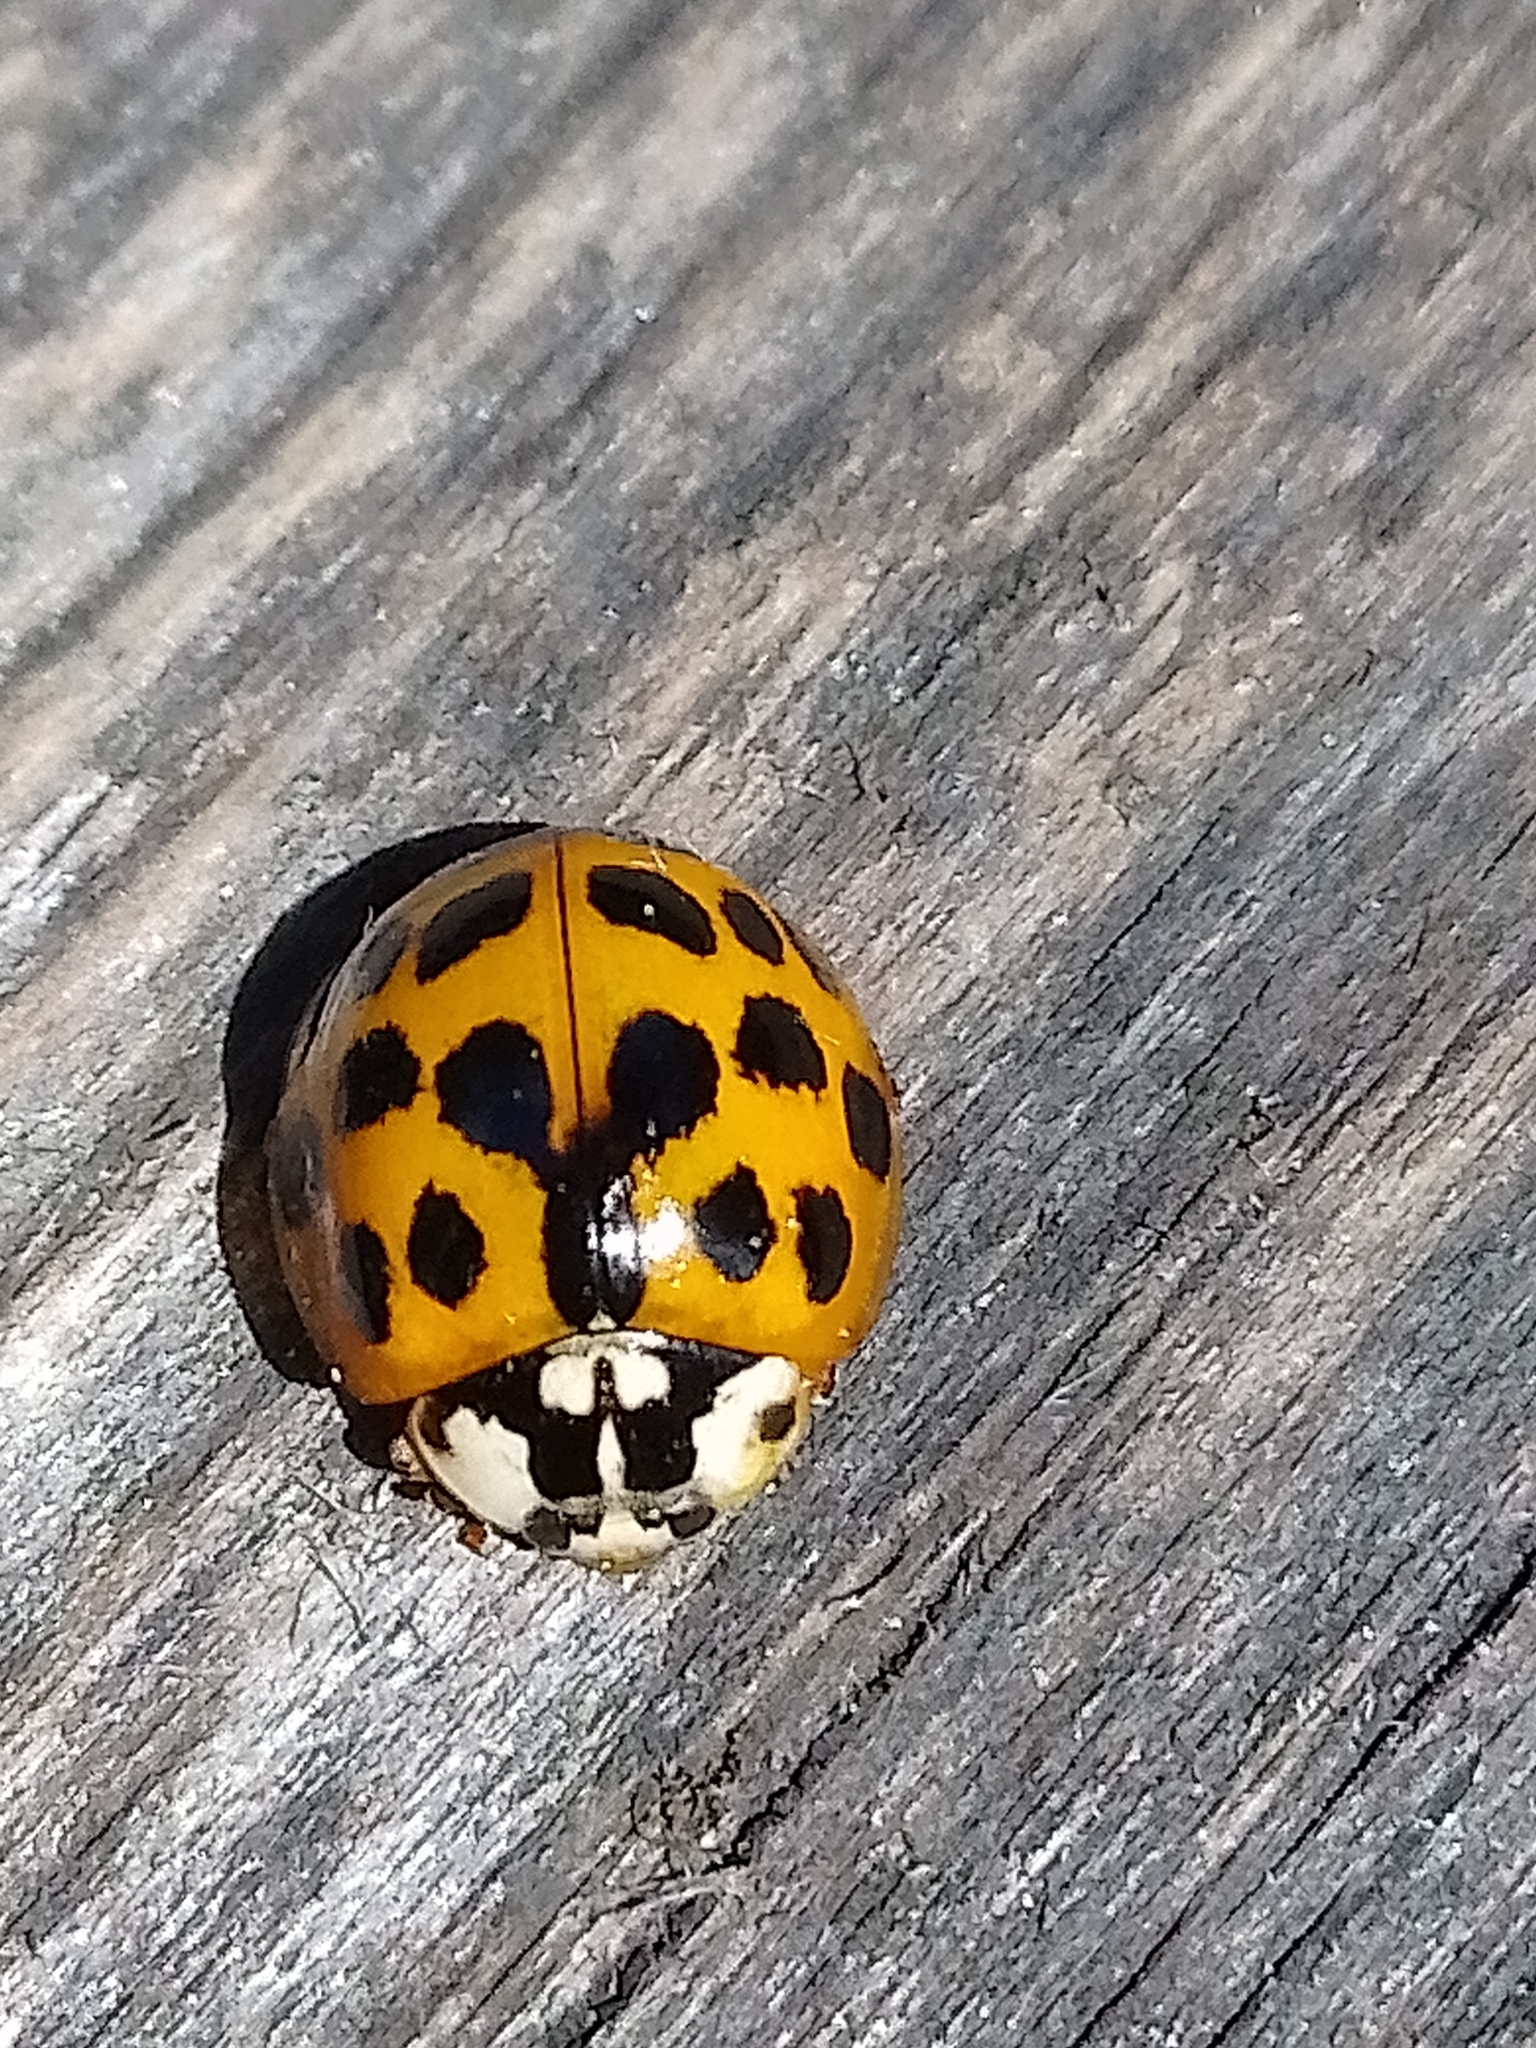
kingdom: Animalia
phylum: Arthropoda
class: Insecta
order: Coleoptera
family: Coccinellidae
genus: Harmonia
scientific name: Harmonia axyridis
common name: Harlequin ladybird
